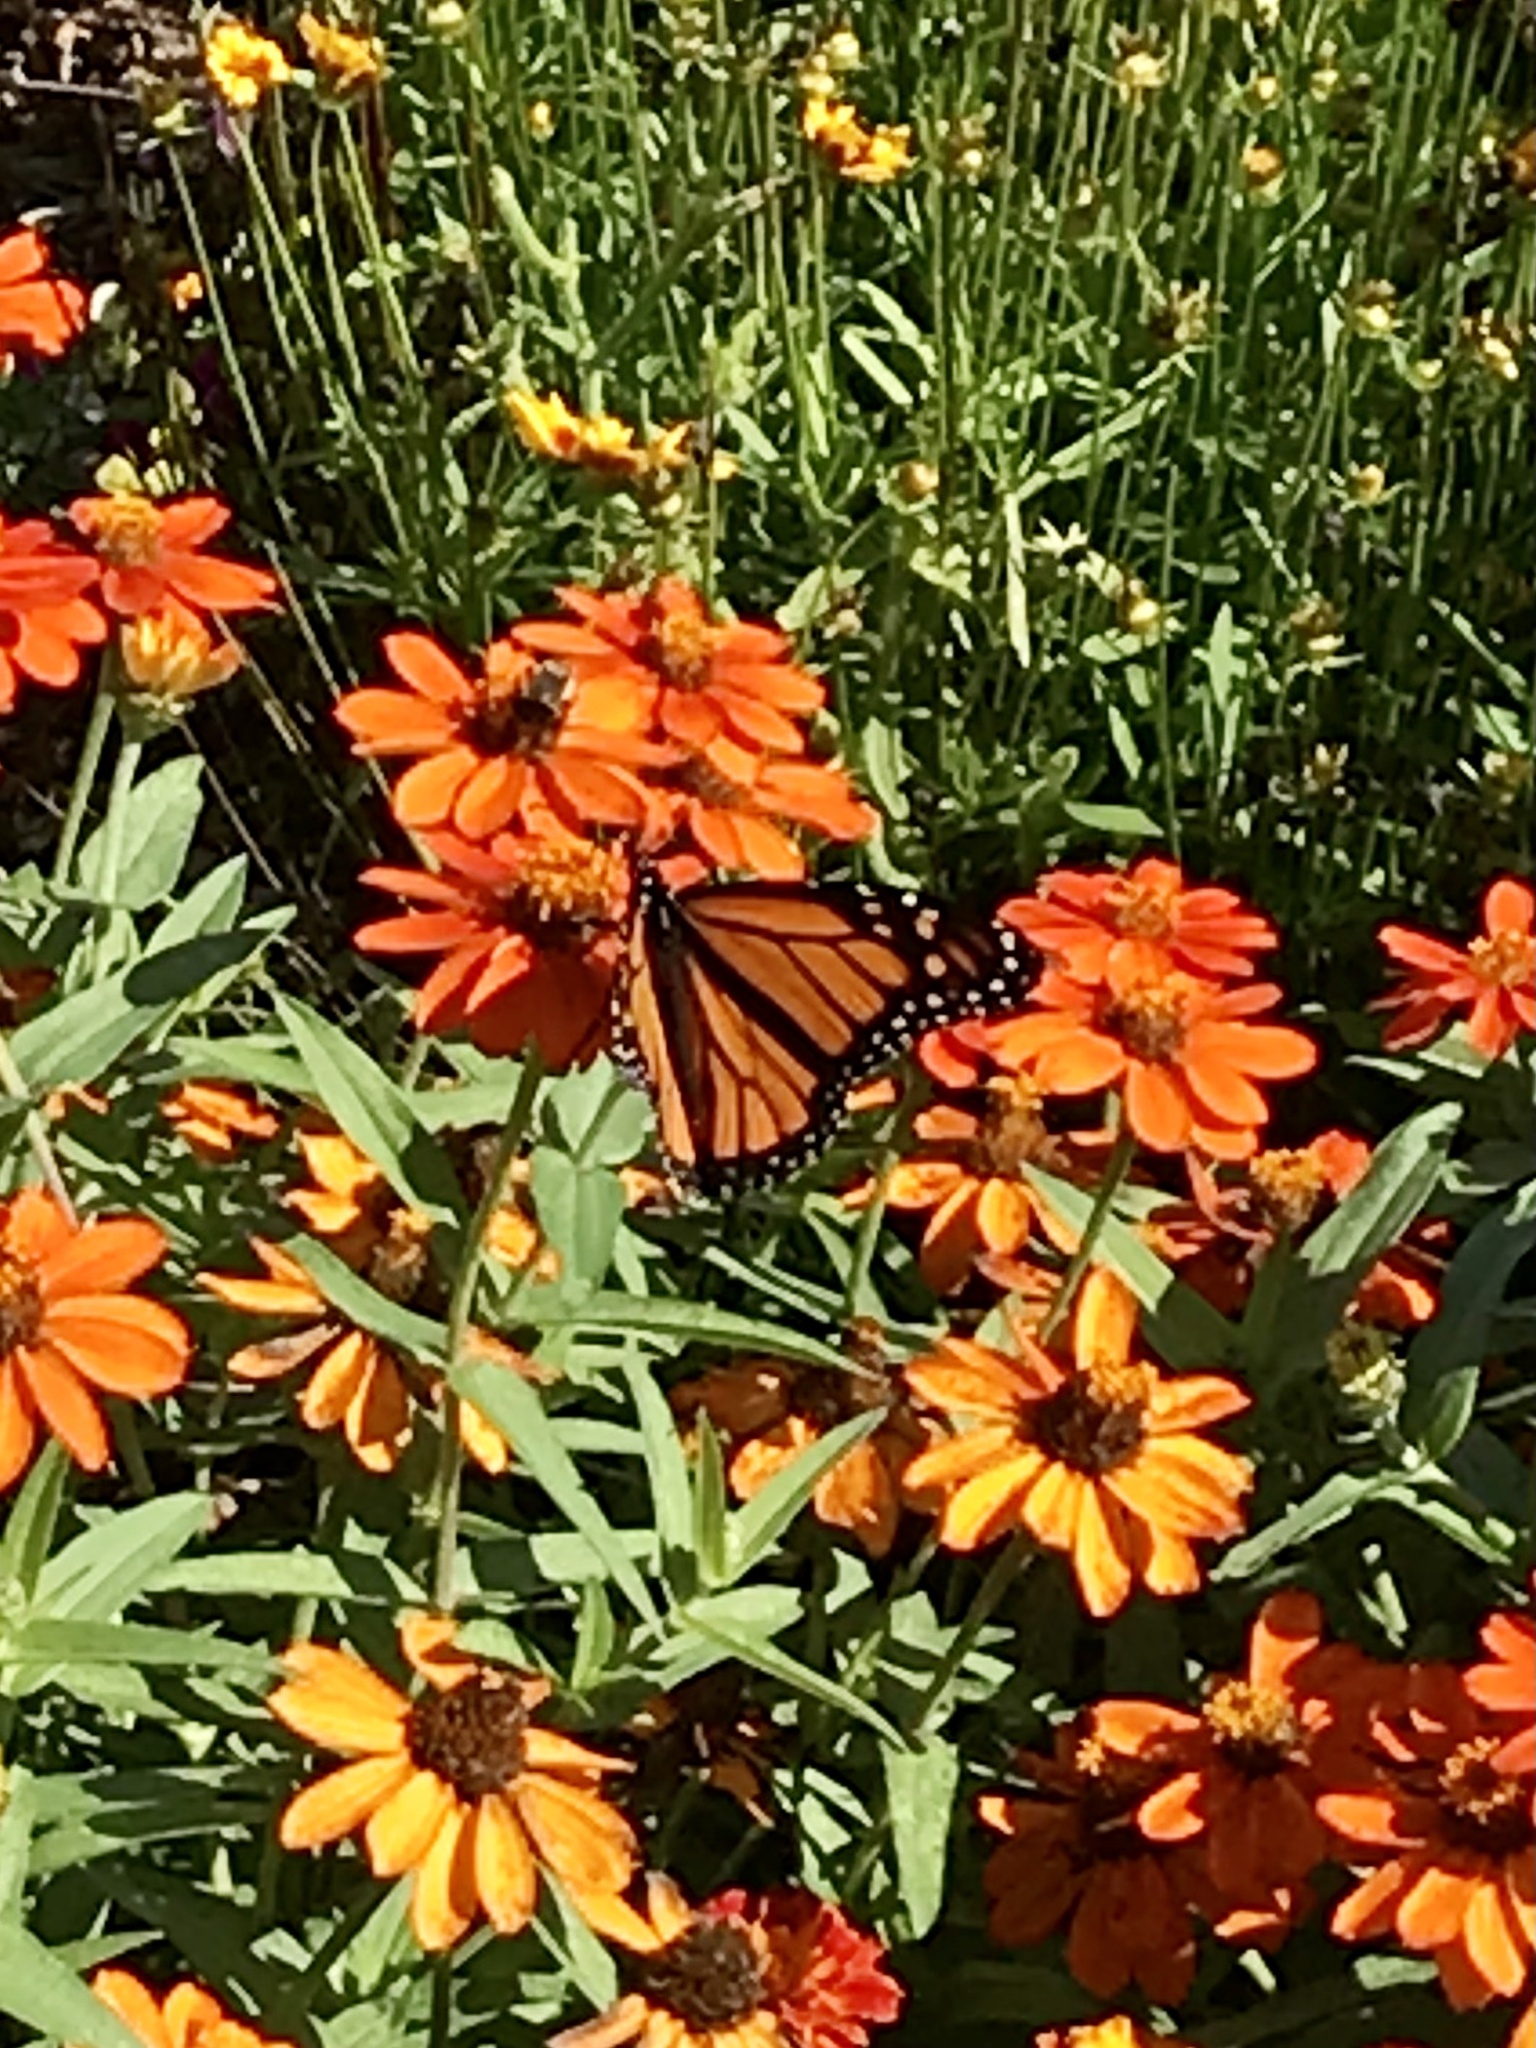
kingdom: Animalia
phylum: Arthropoda
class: Insecta
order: Lepidoptera
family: Nymphalidae
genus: Danaus
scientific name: Danaus plexippus
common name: Monarch
